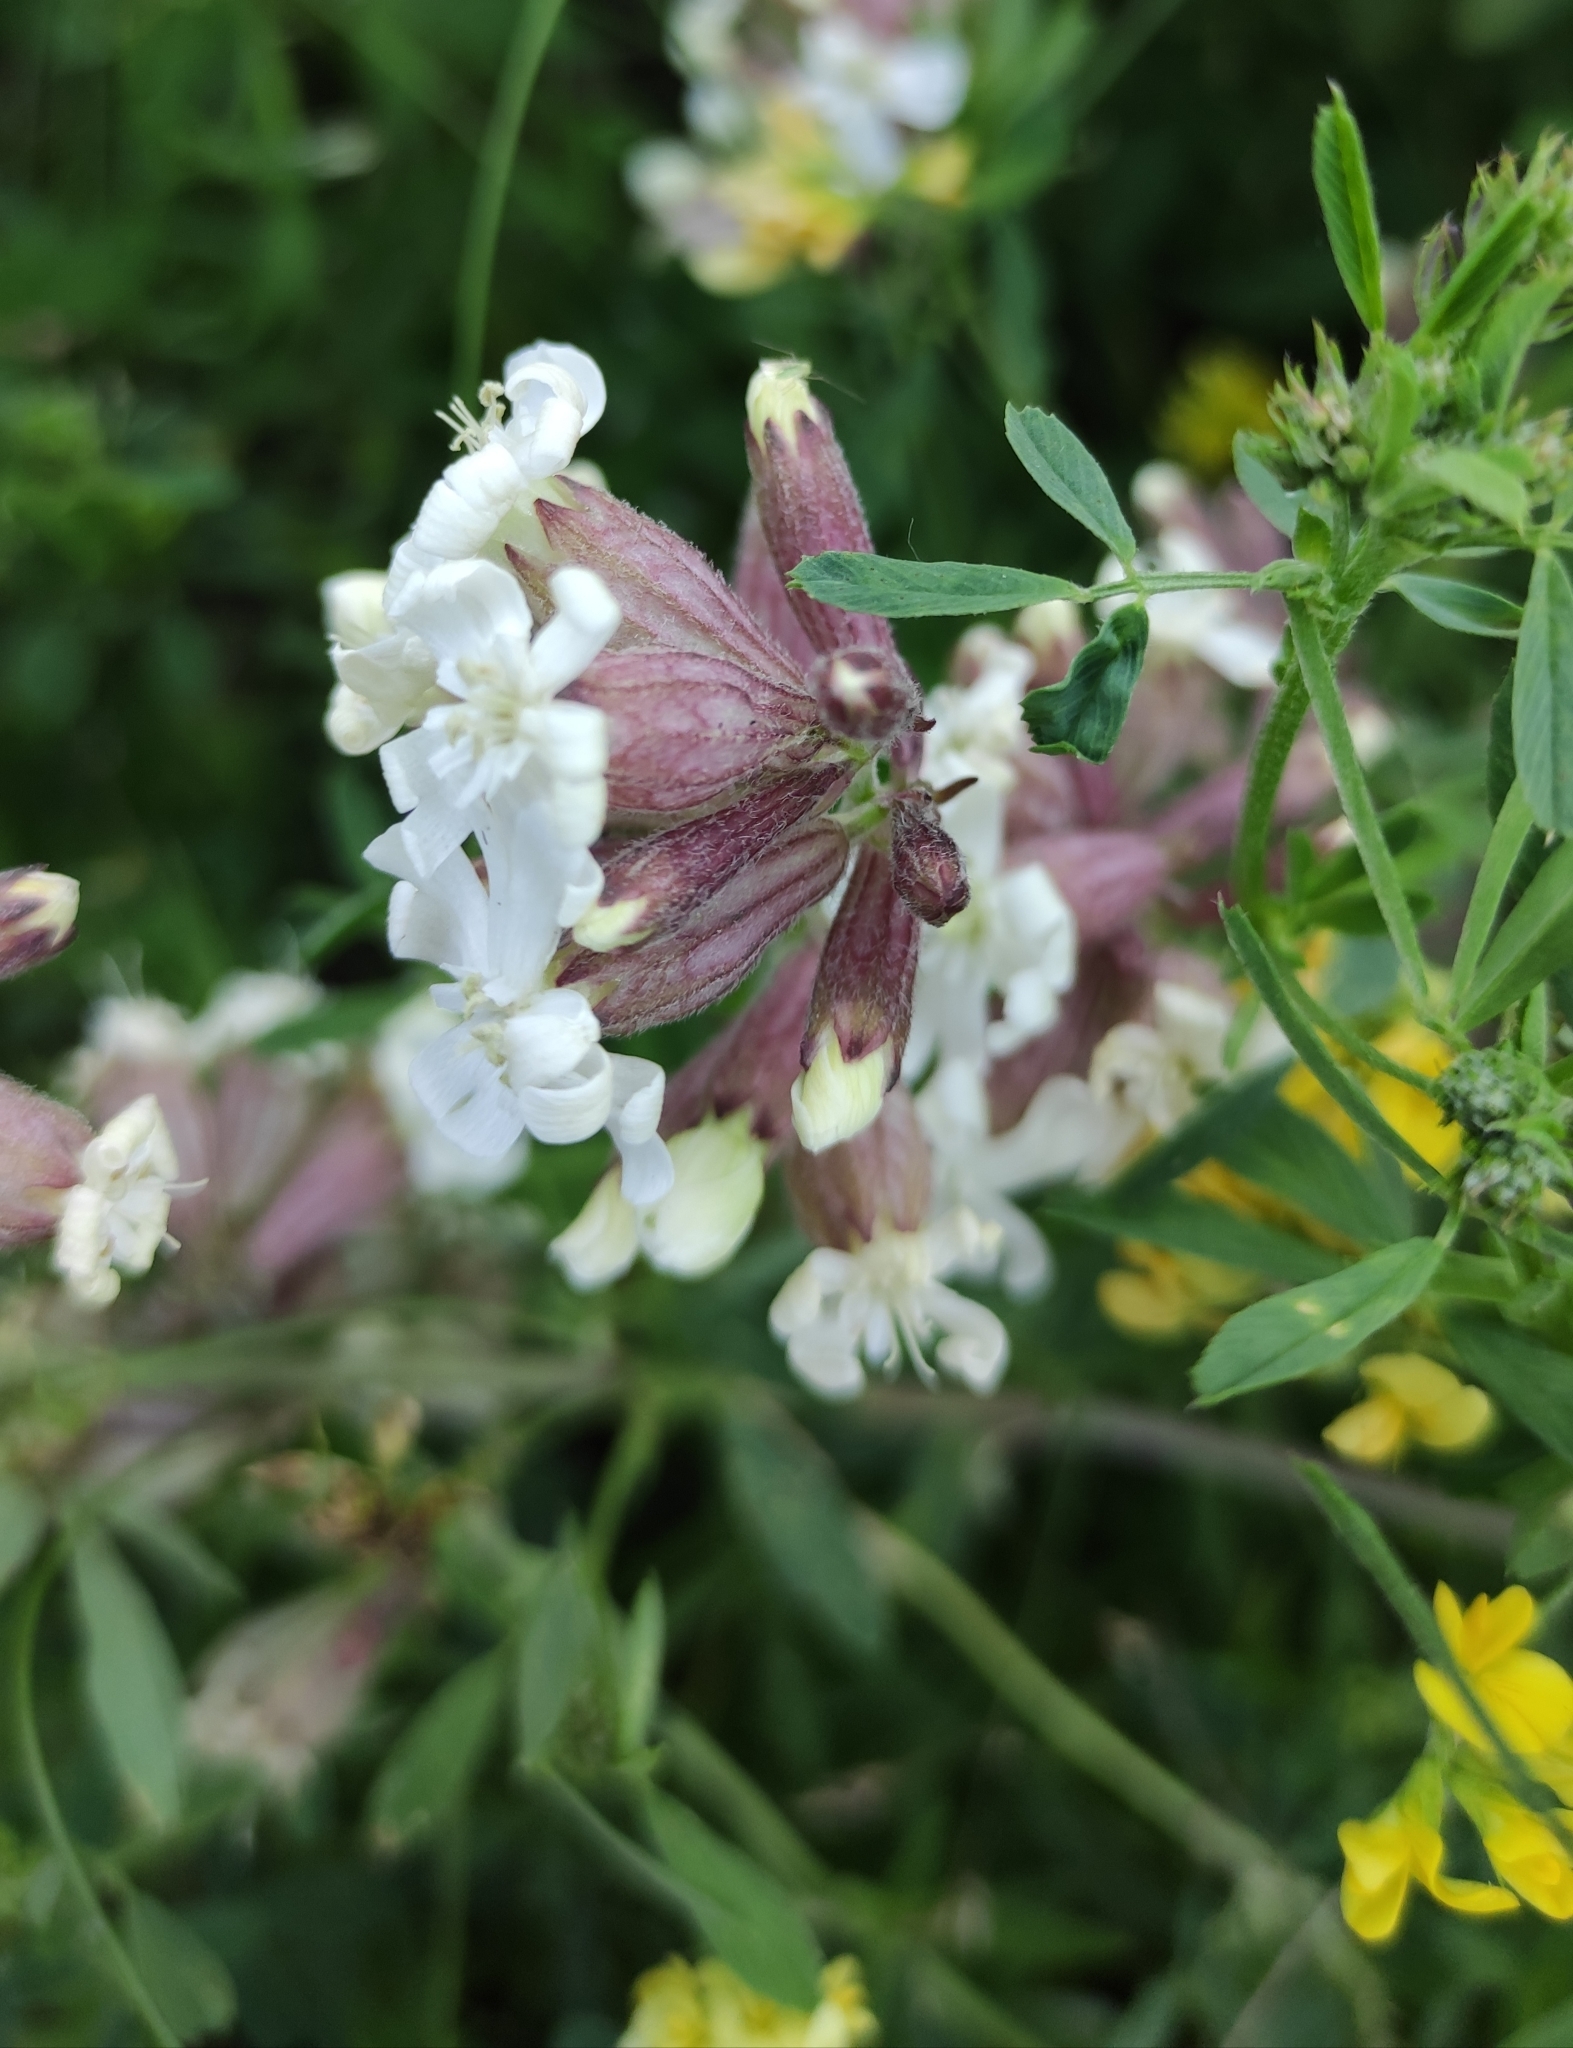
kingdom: Plantae
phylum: Tracheophyta
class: Magnoliopsida
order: Caryophyllales
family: Caryophyllaceae
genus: Silene
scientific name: Silene amoena
